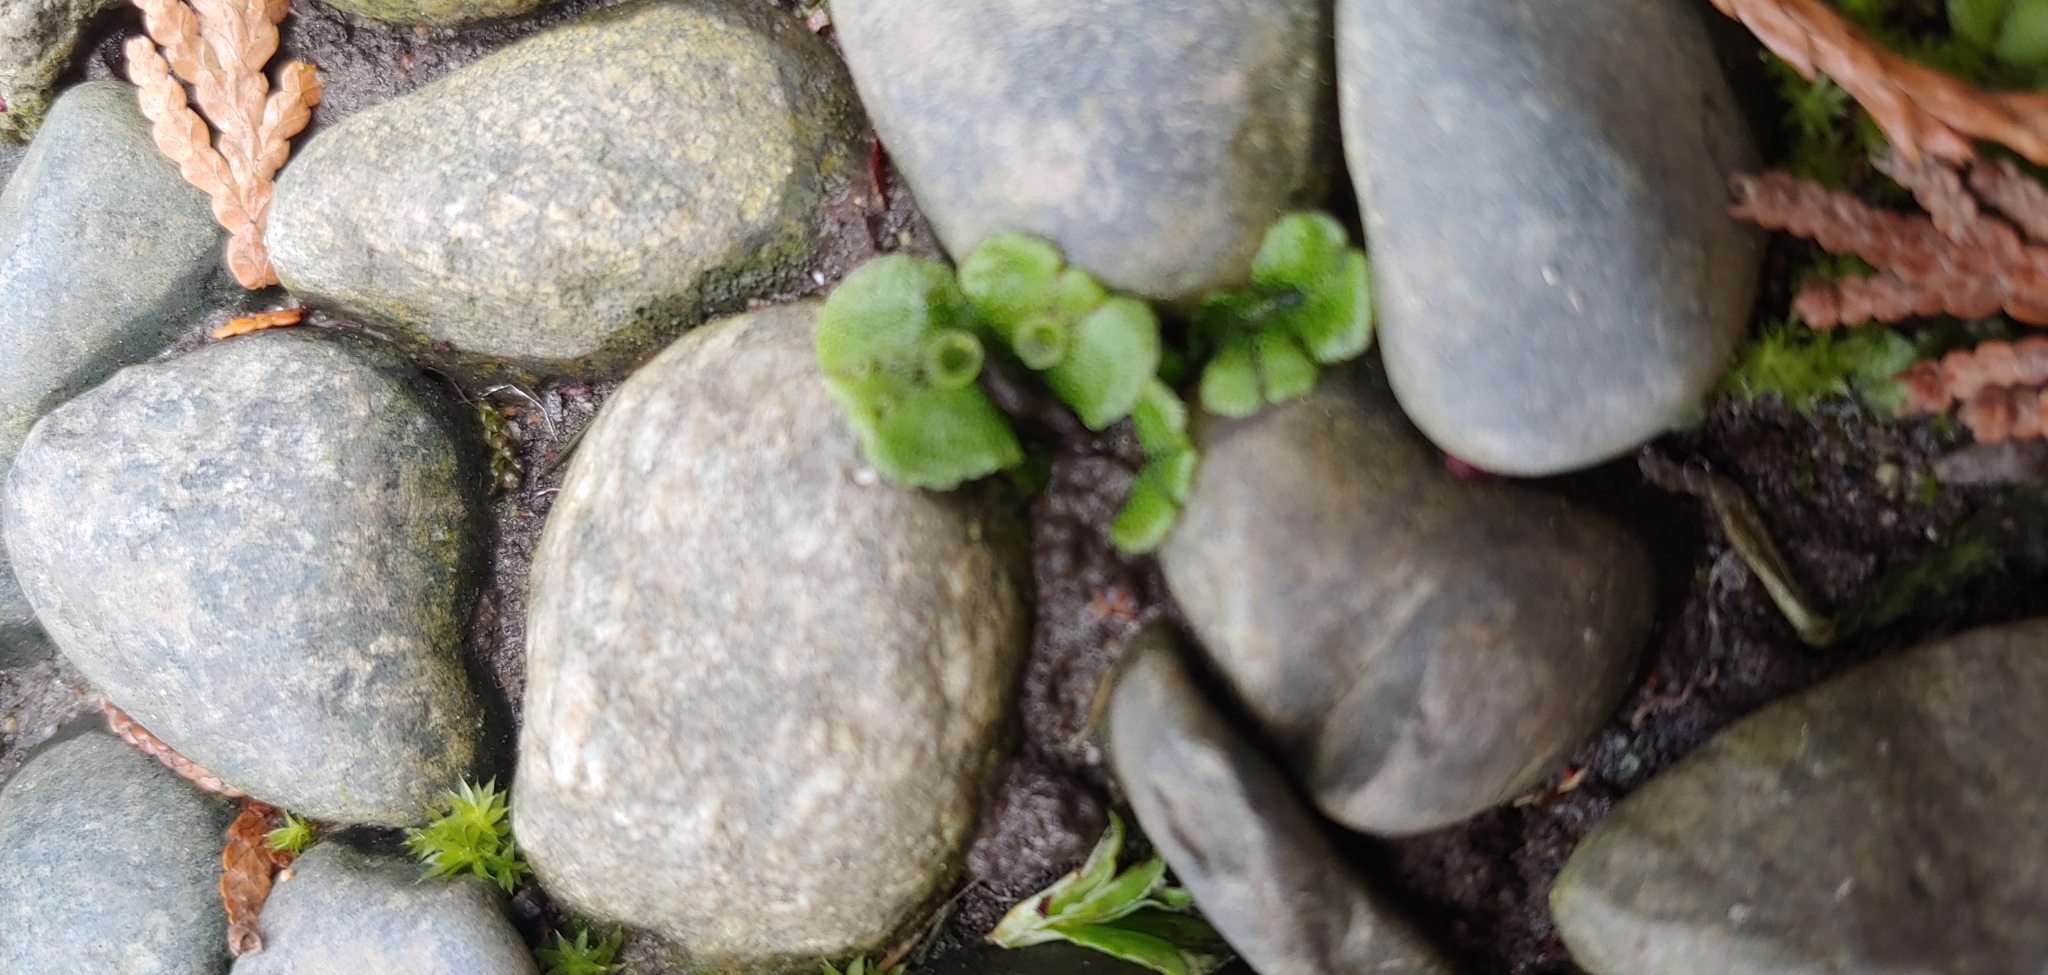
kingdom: Plantae
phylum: Marchantiophyta
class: Marchantiopsida
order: Marchantiales
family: Marchantiaceae
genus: Marchantia
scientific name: Marchantia polymorpha
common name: Common liverwort
